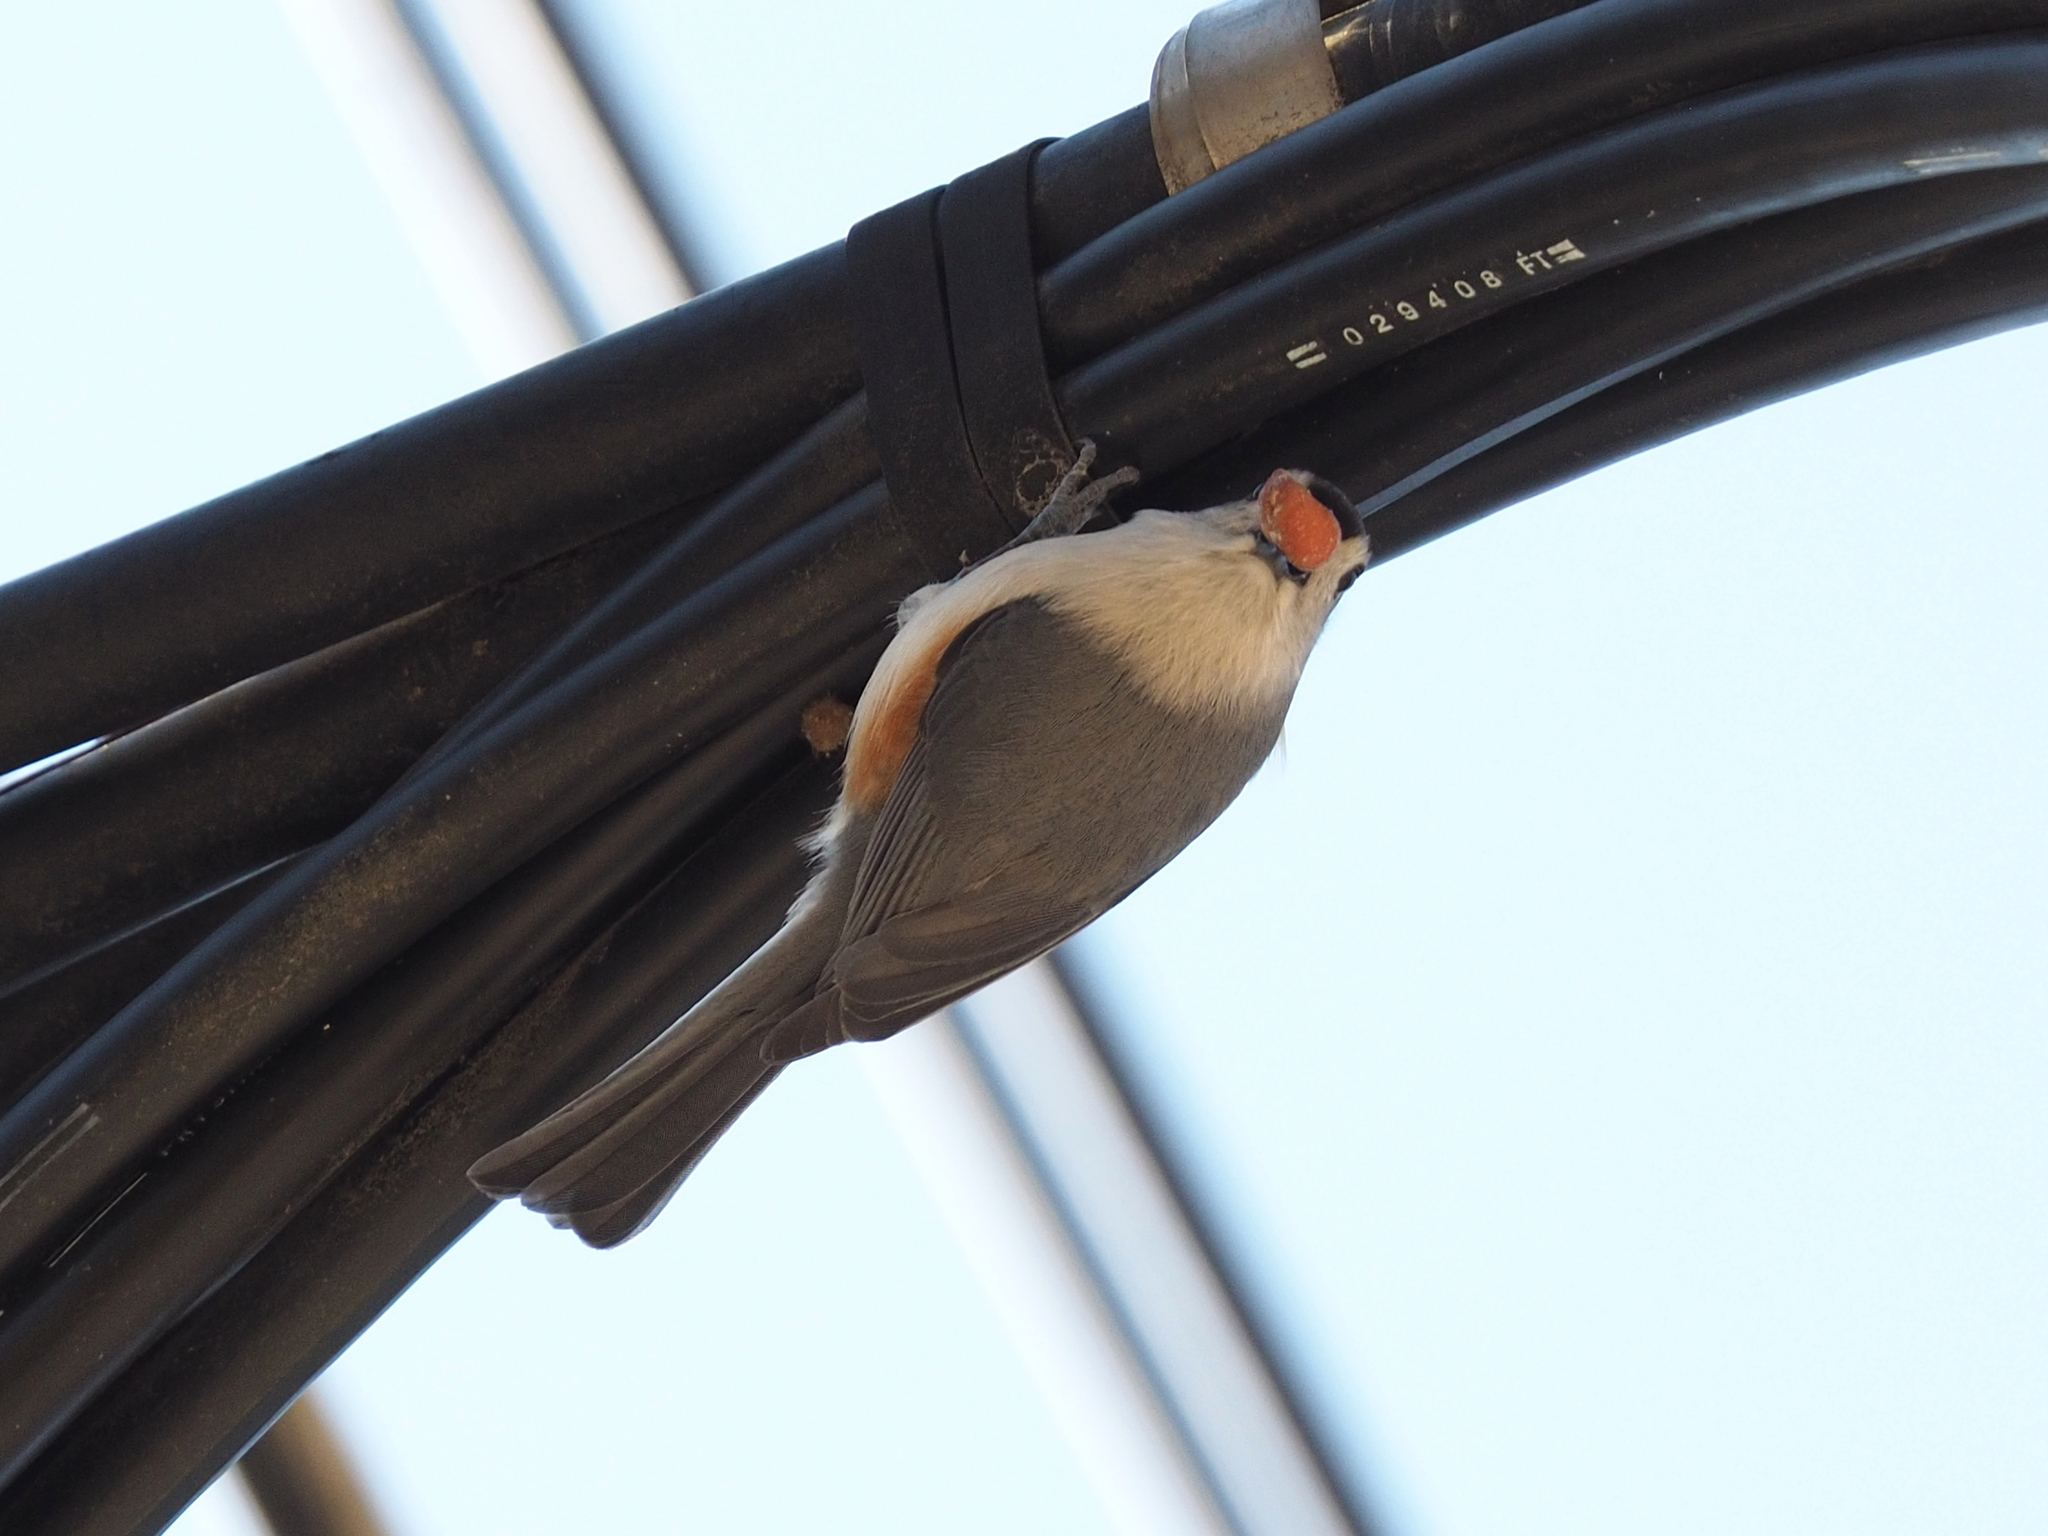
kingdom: Animalia
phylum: Chordata
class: Aves
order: Passeriformes
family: Paridae
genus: Baeolophus
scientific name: Baeolophus bicolor
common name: Tufted titmouse
